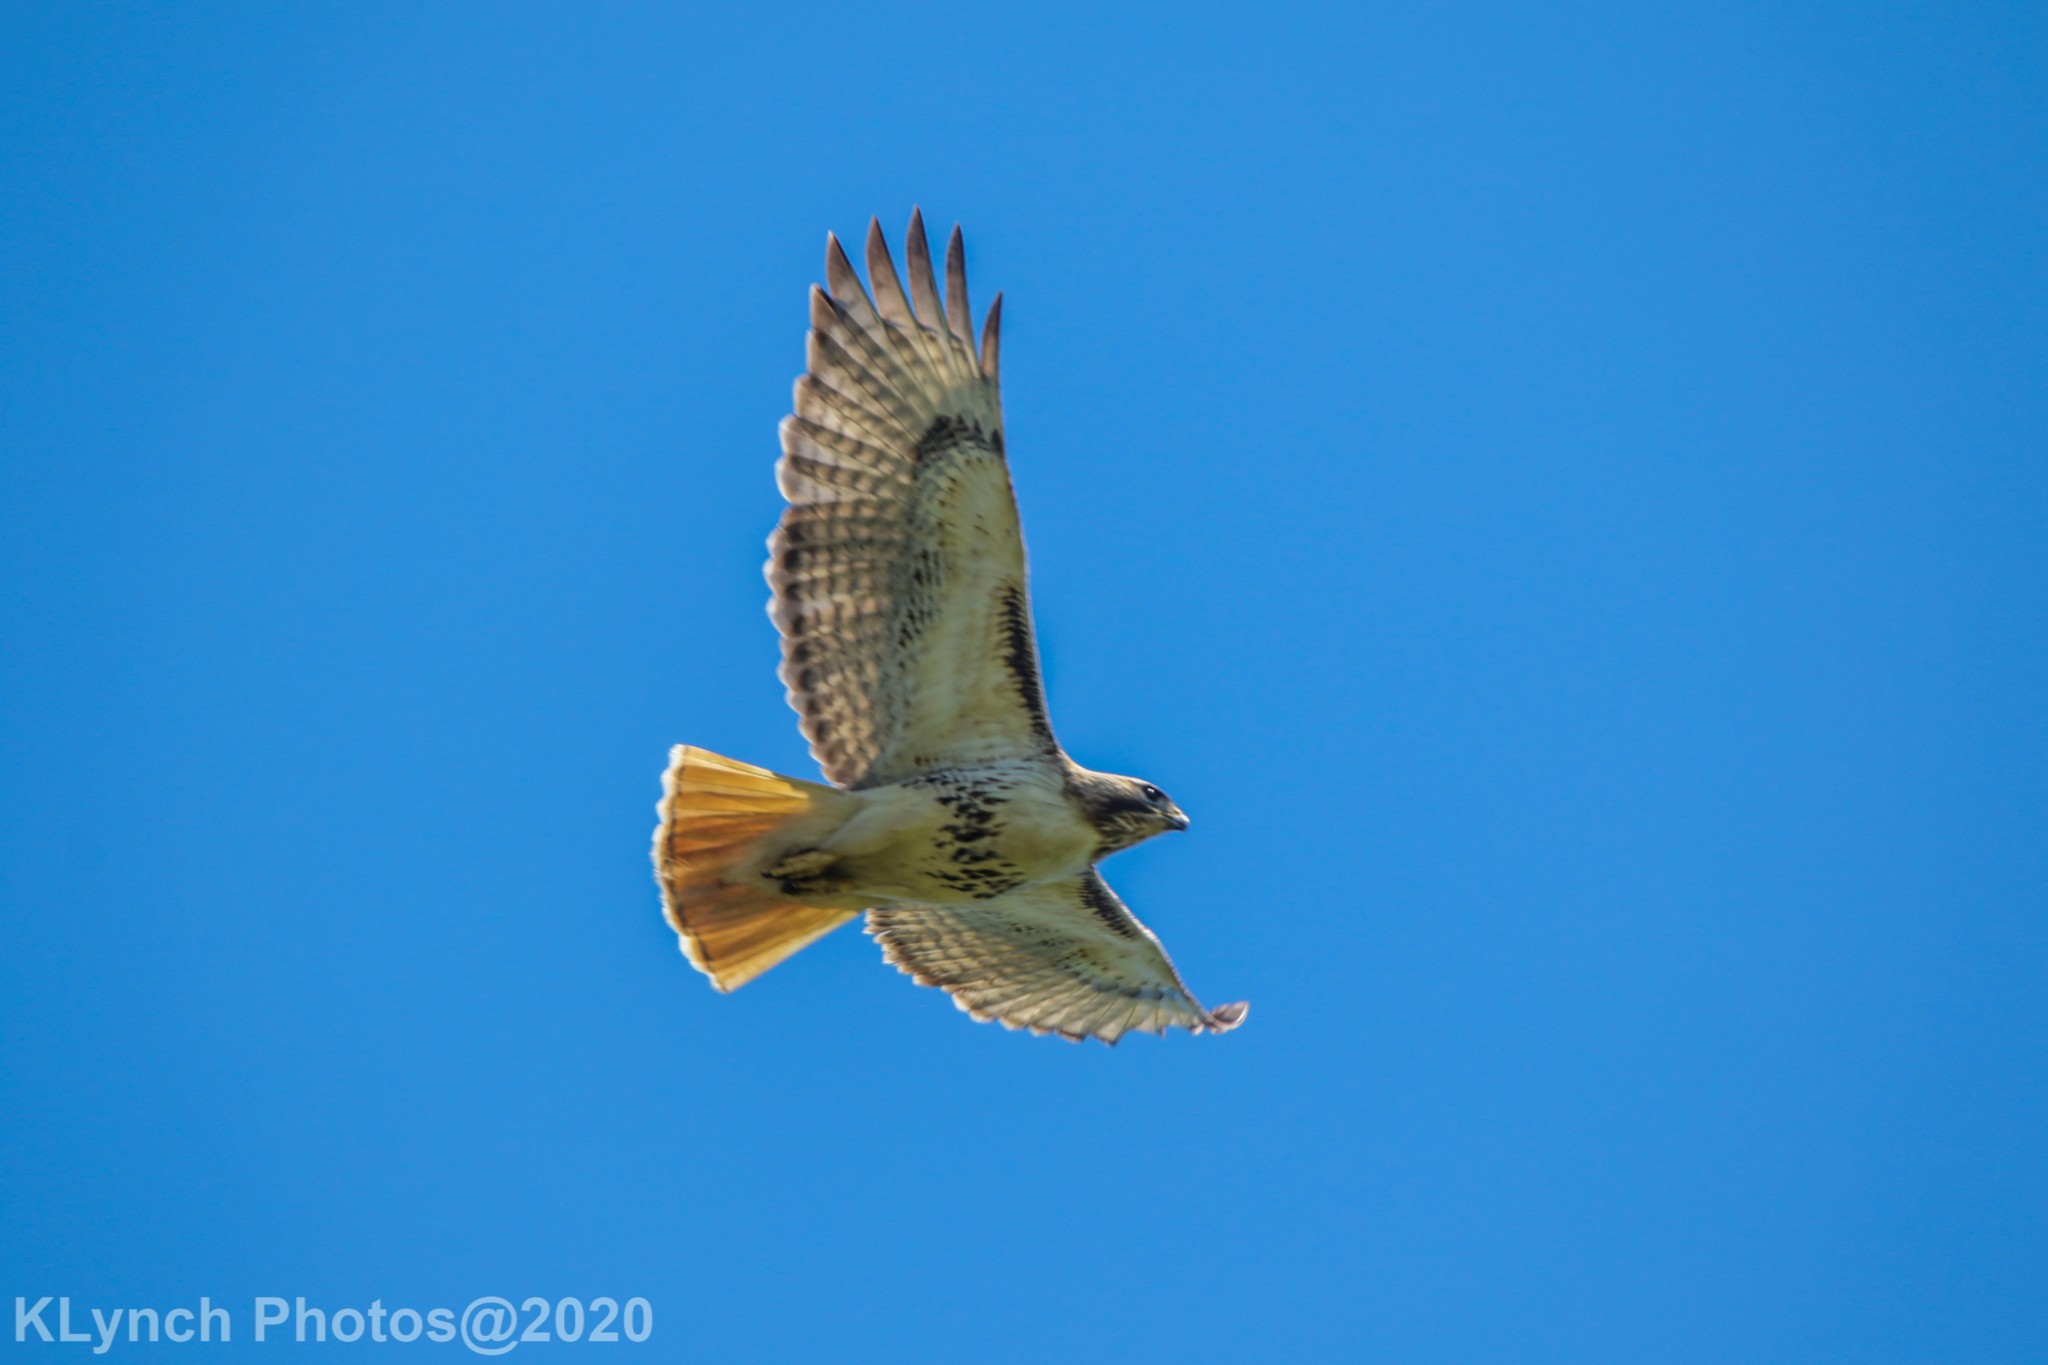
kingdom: Animalia
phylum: Chordata
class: Aves
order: Accipitriformes
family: Accipitridae
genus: Buteo
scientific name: Buteo jamaicensis
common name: Red-tailed hawk
